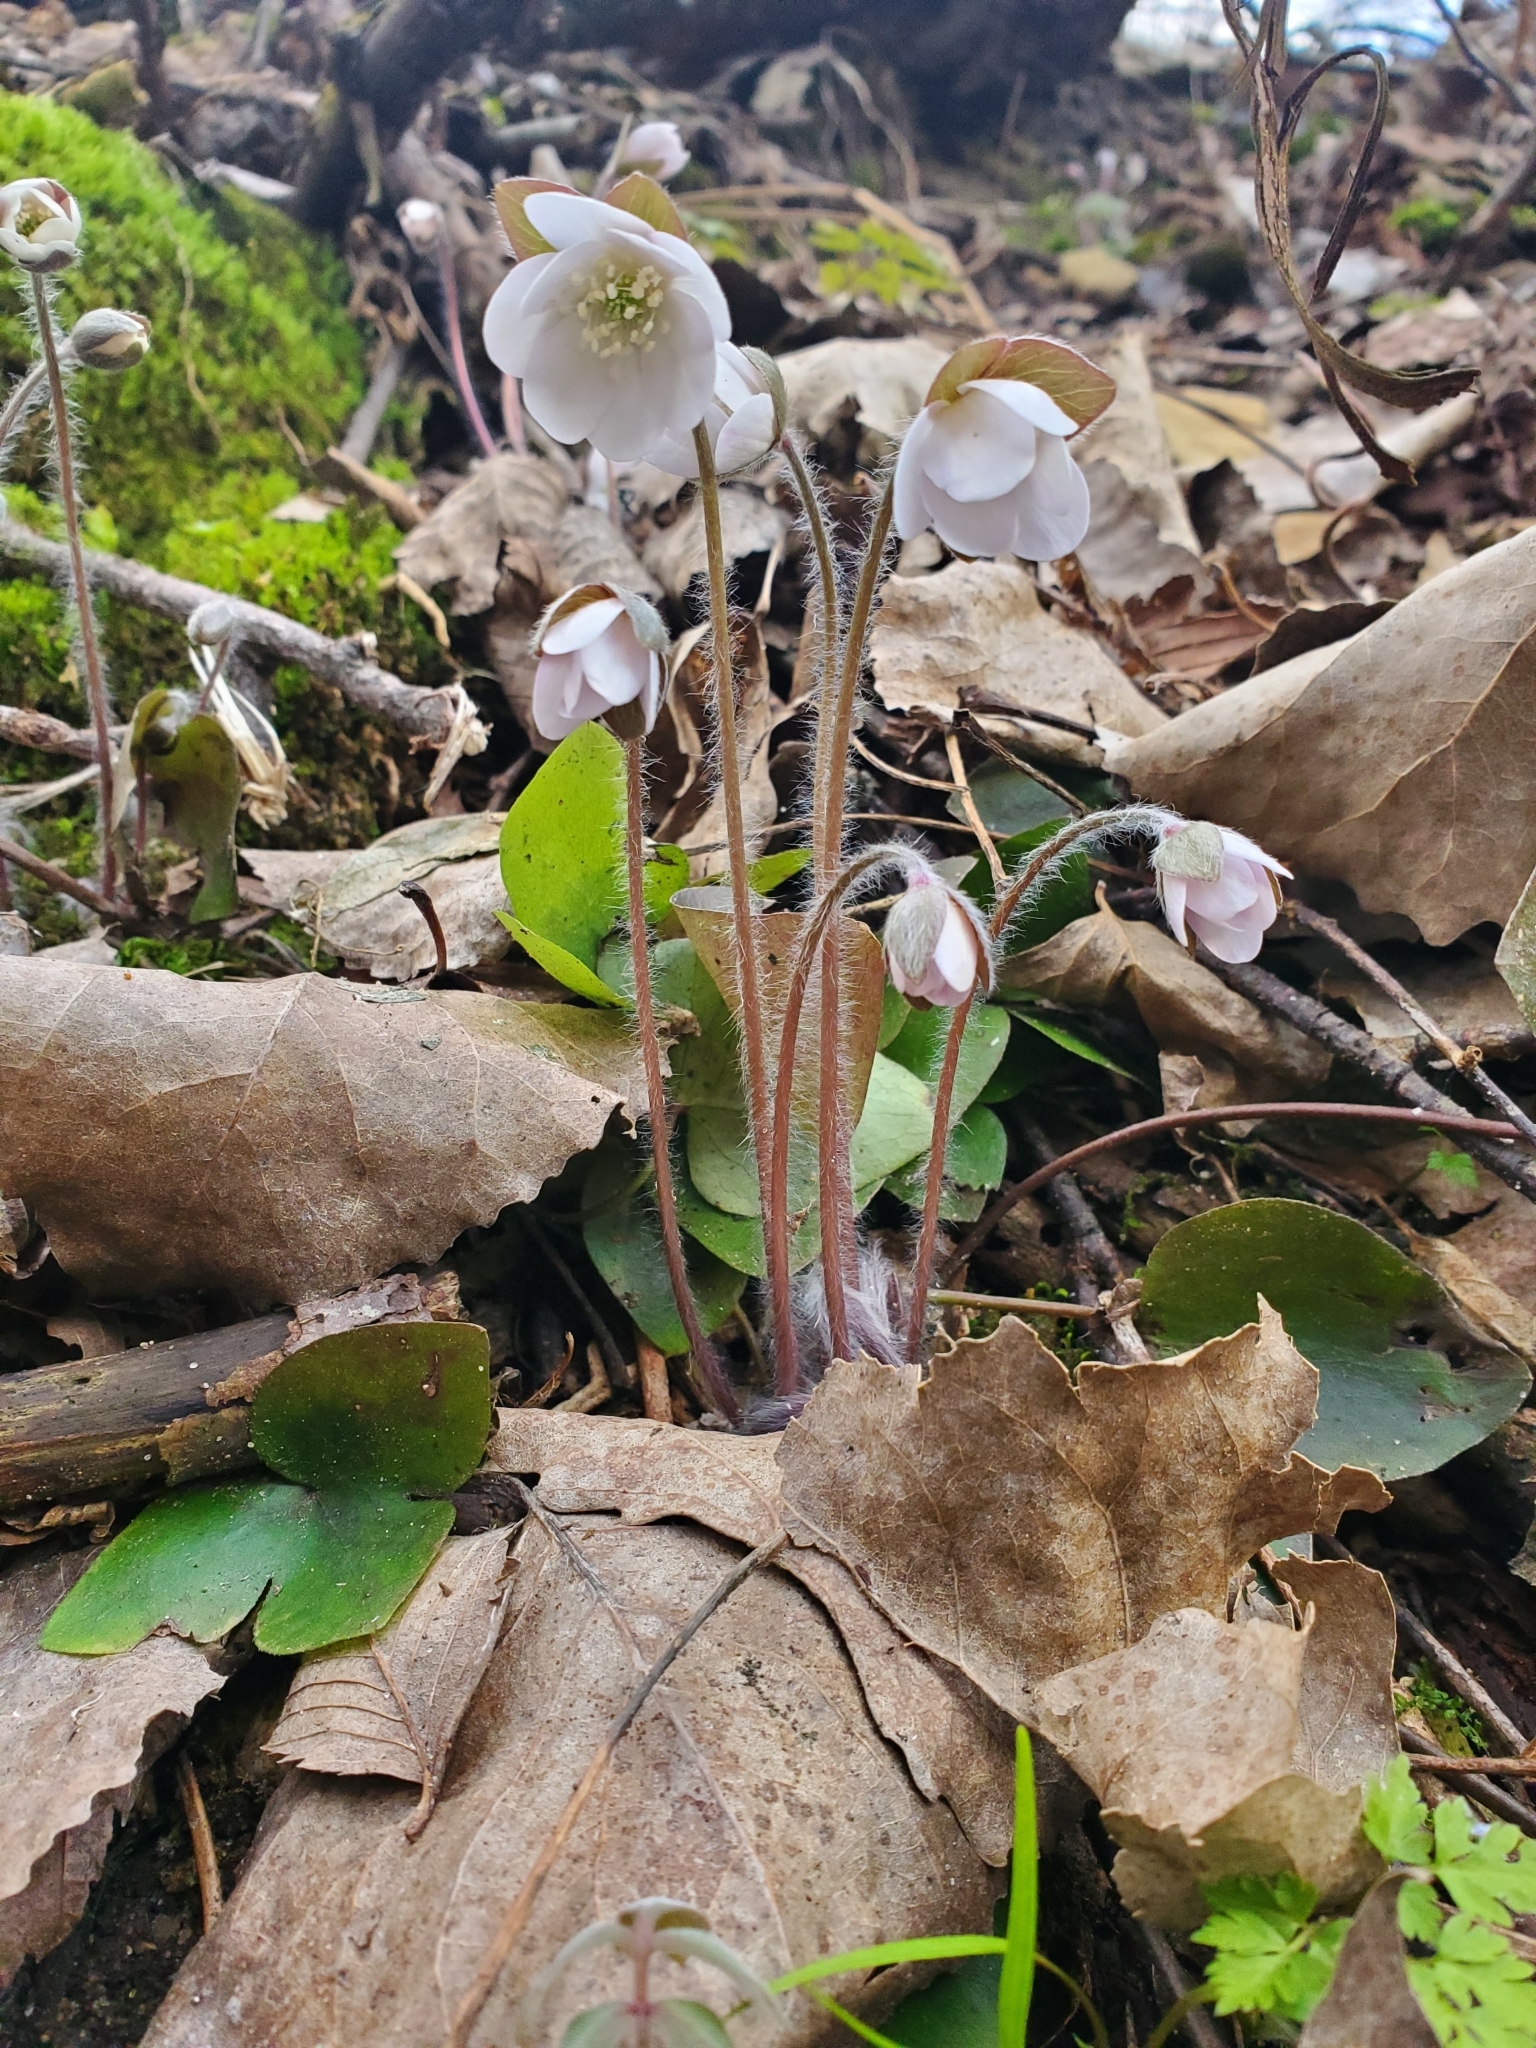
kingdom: Plantae
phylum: Tracheophyta
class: Magnoliopsida
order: Ranunculales
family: Ranunculaceae
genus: Hepatica
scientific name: Hepatica acutiloba
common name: Sharp-lobed hepatica
